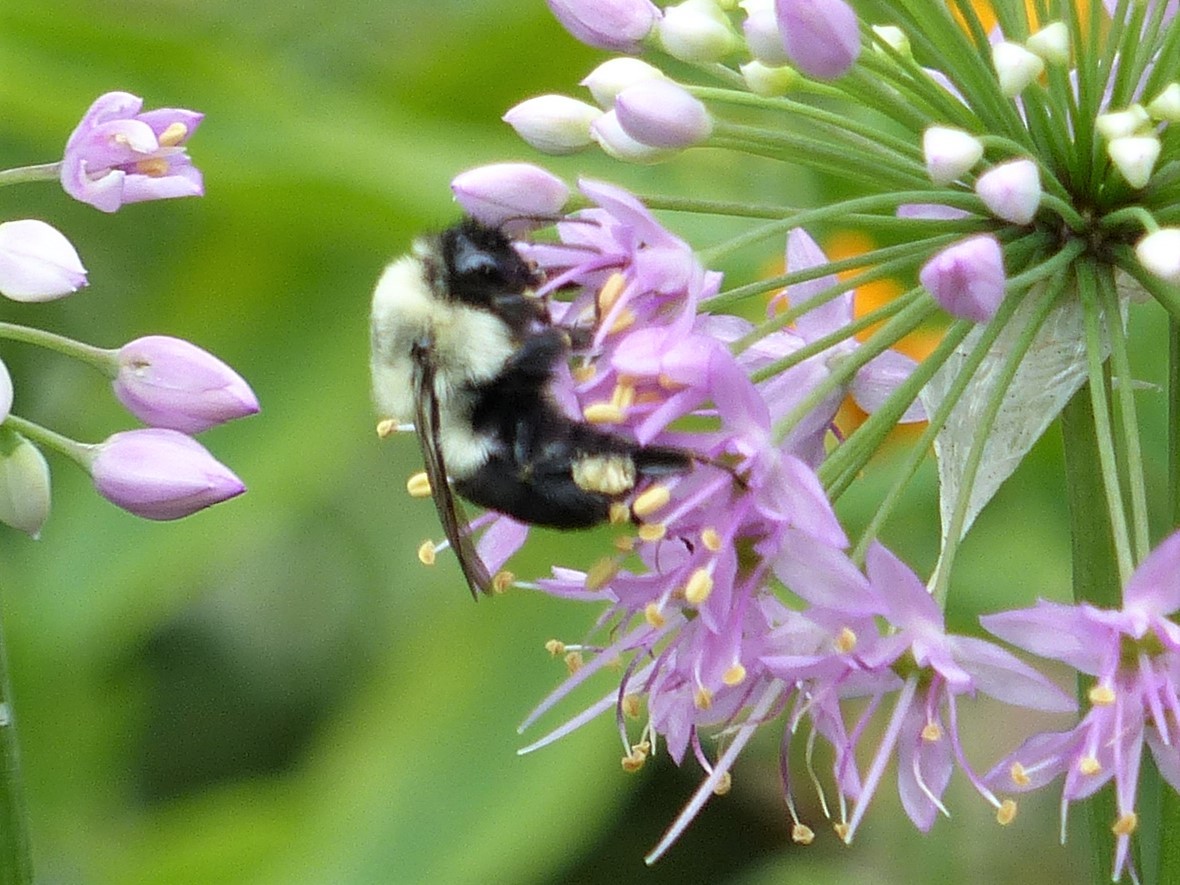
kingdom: Animalia
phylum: Arthropoda
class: Insecta
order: Hymenoptera
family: Apidae
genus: Bombus
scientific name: Bombus impatiens
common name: Common eastern bumble bee
